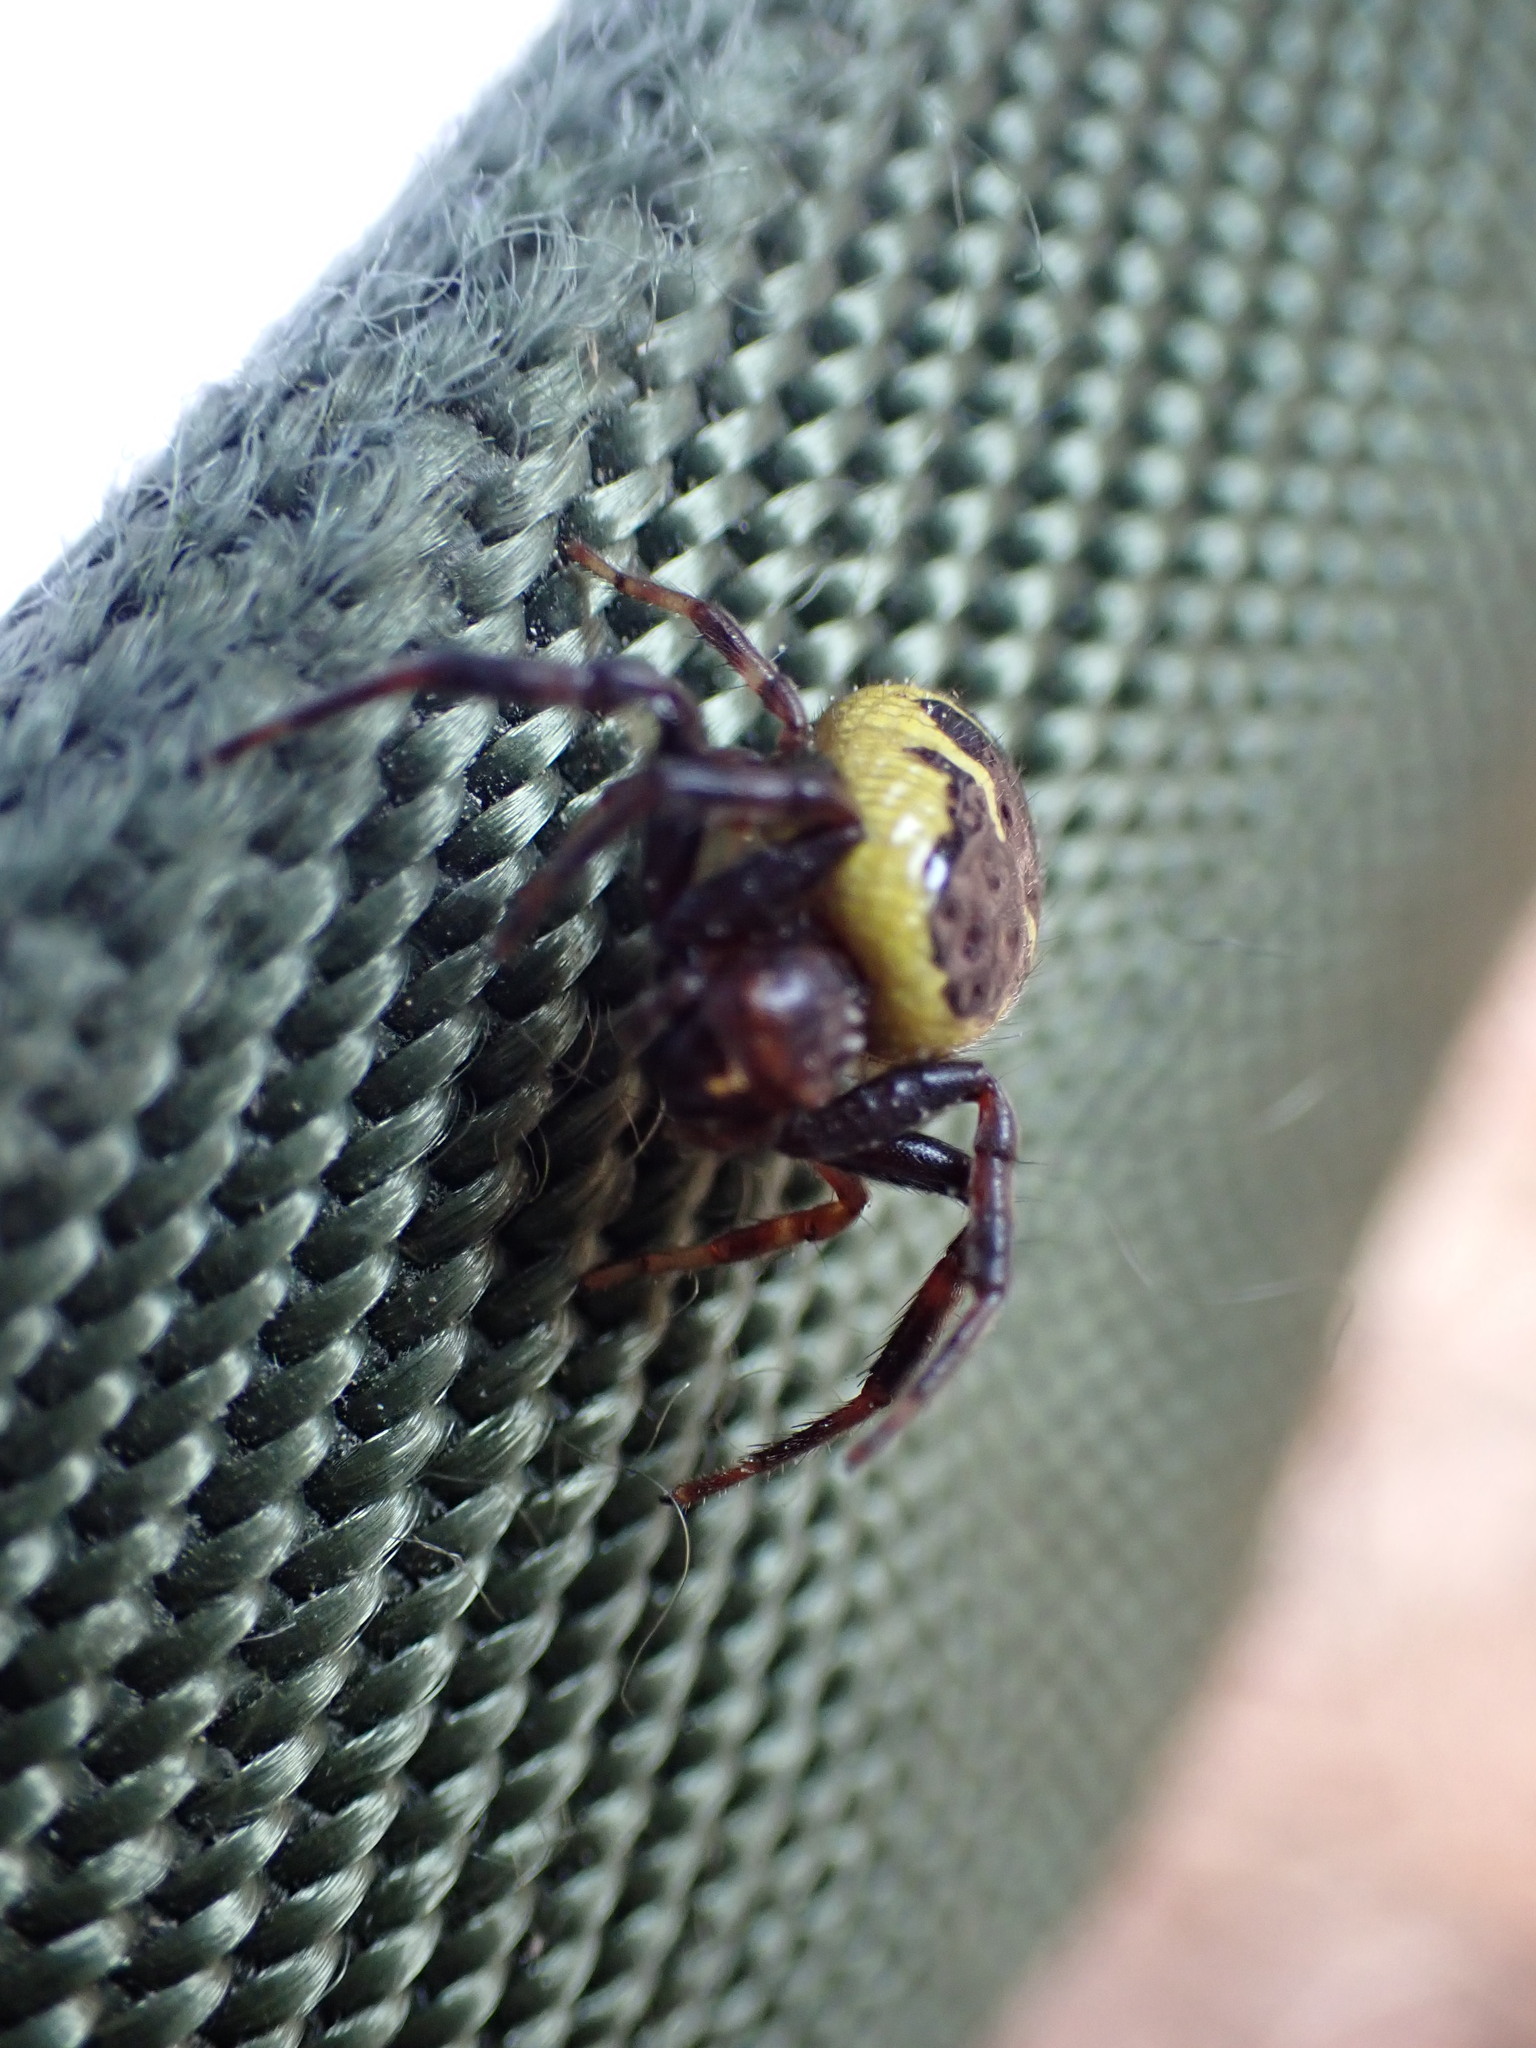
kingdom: Animalia
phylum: Arthropoda
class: Arachnida
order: Araneae
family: Thomisidae
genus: Synema
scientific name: Synema globosum
